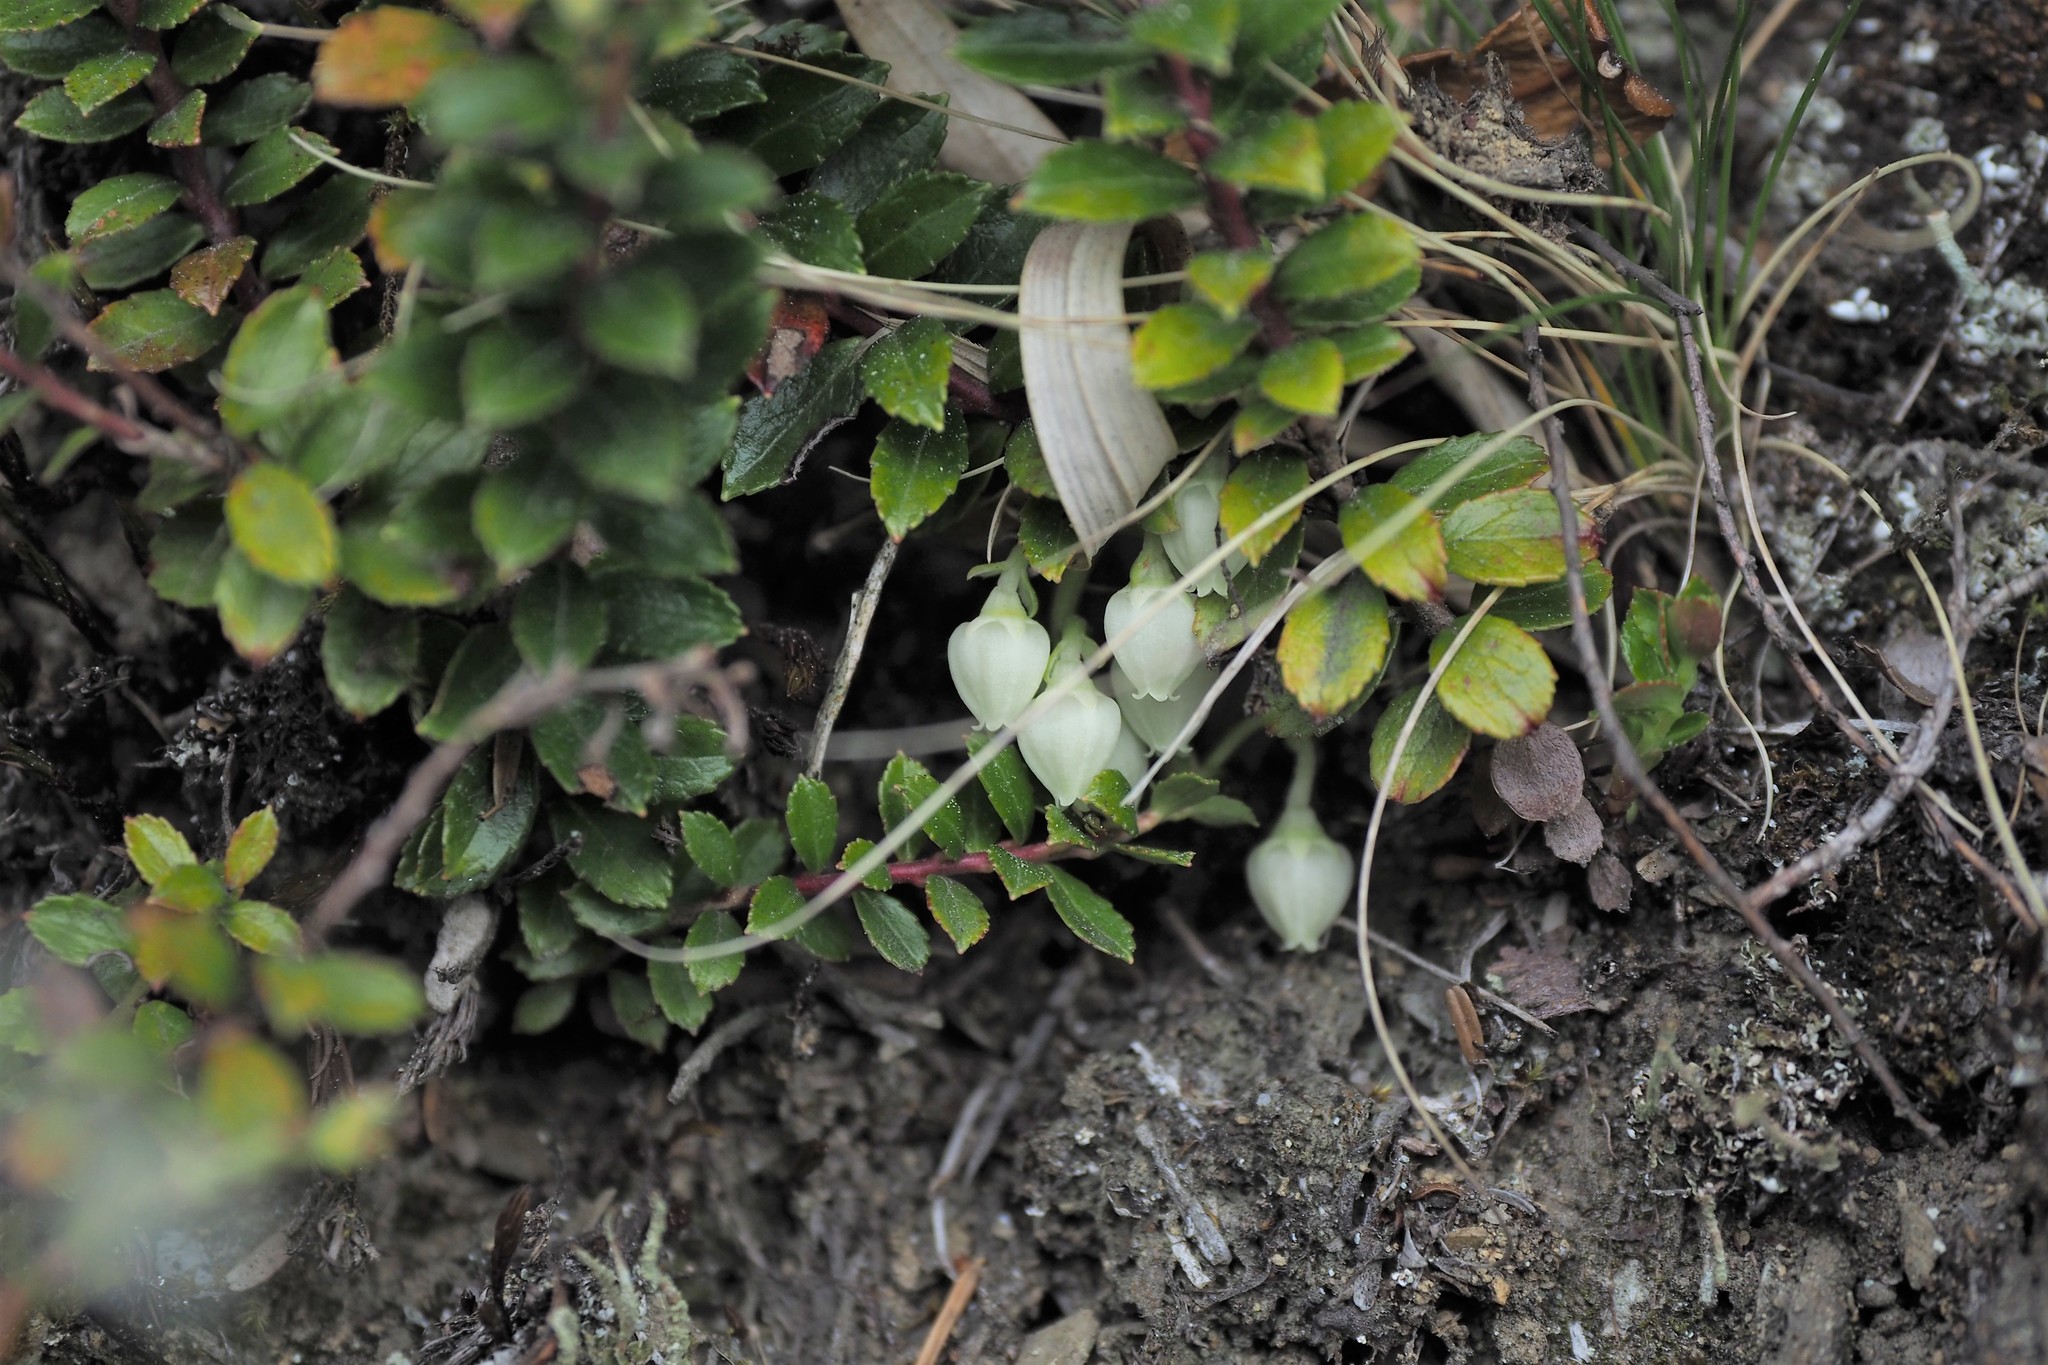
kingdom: Plantae
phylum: Tracheophyta
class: Magnoliopsida
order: Ericales
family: Ericaceae
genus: Gaultheria
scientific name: Gaultheria borneensis
